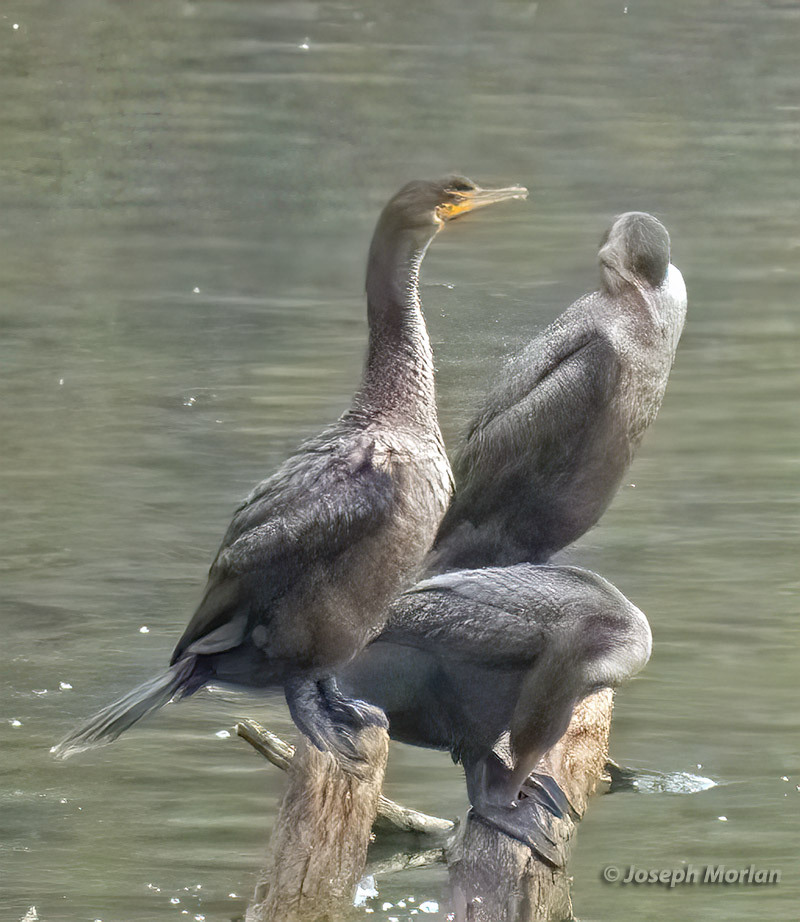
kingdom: Animalia
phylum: Chordata
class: Aves
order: Suliformes
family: Phalacrocoracidae
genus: Phalacrocorax
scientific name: Phalacrocorax auritus
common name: Double-crested cormorant
